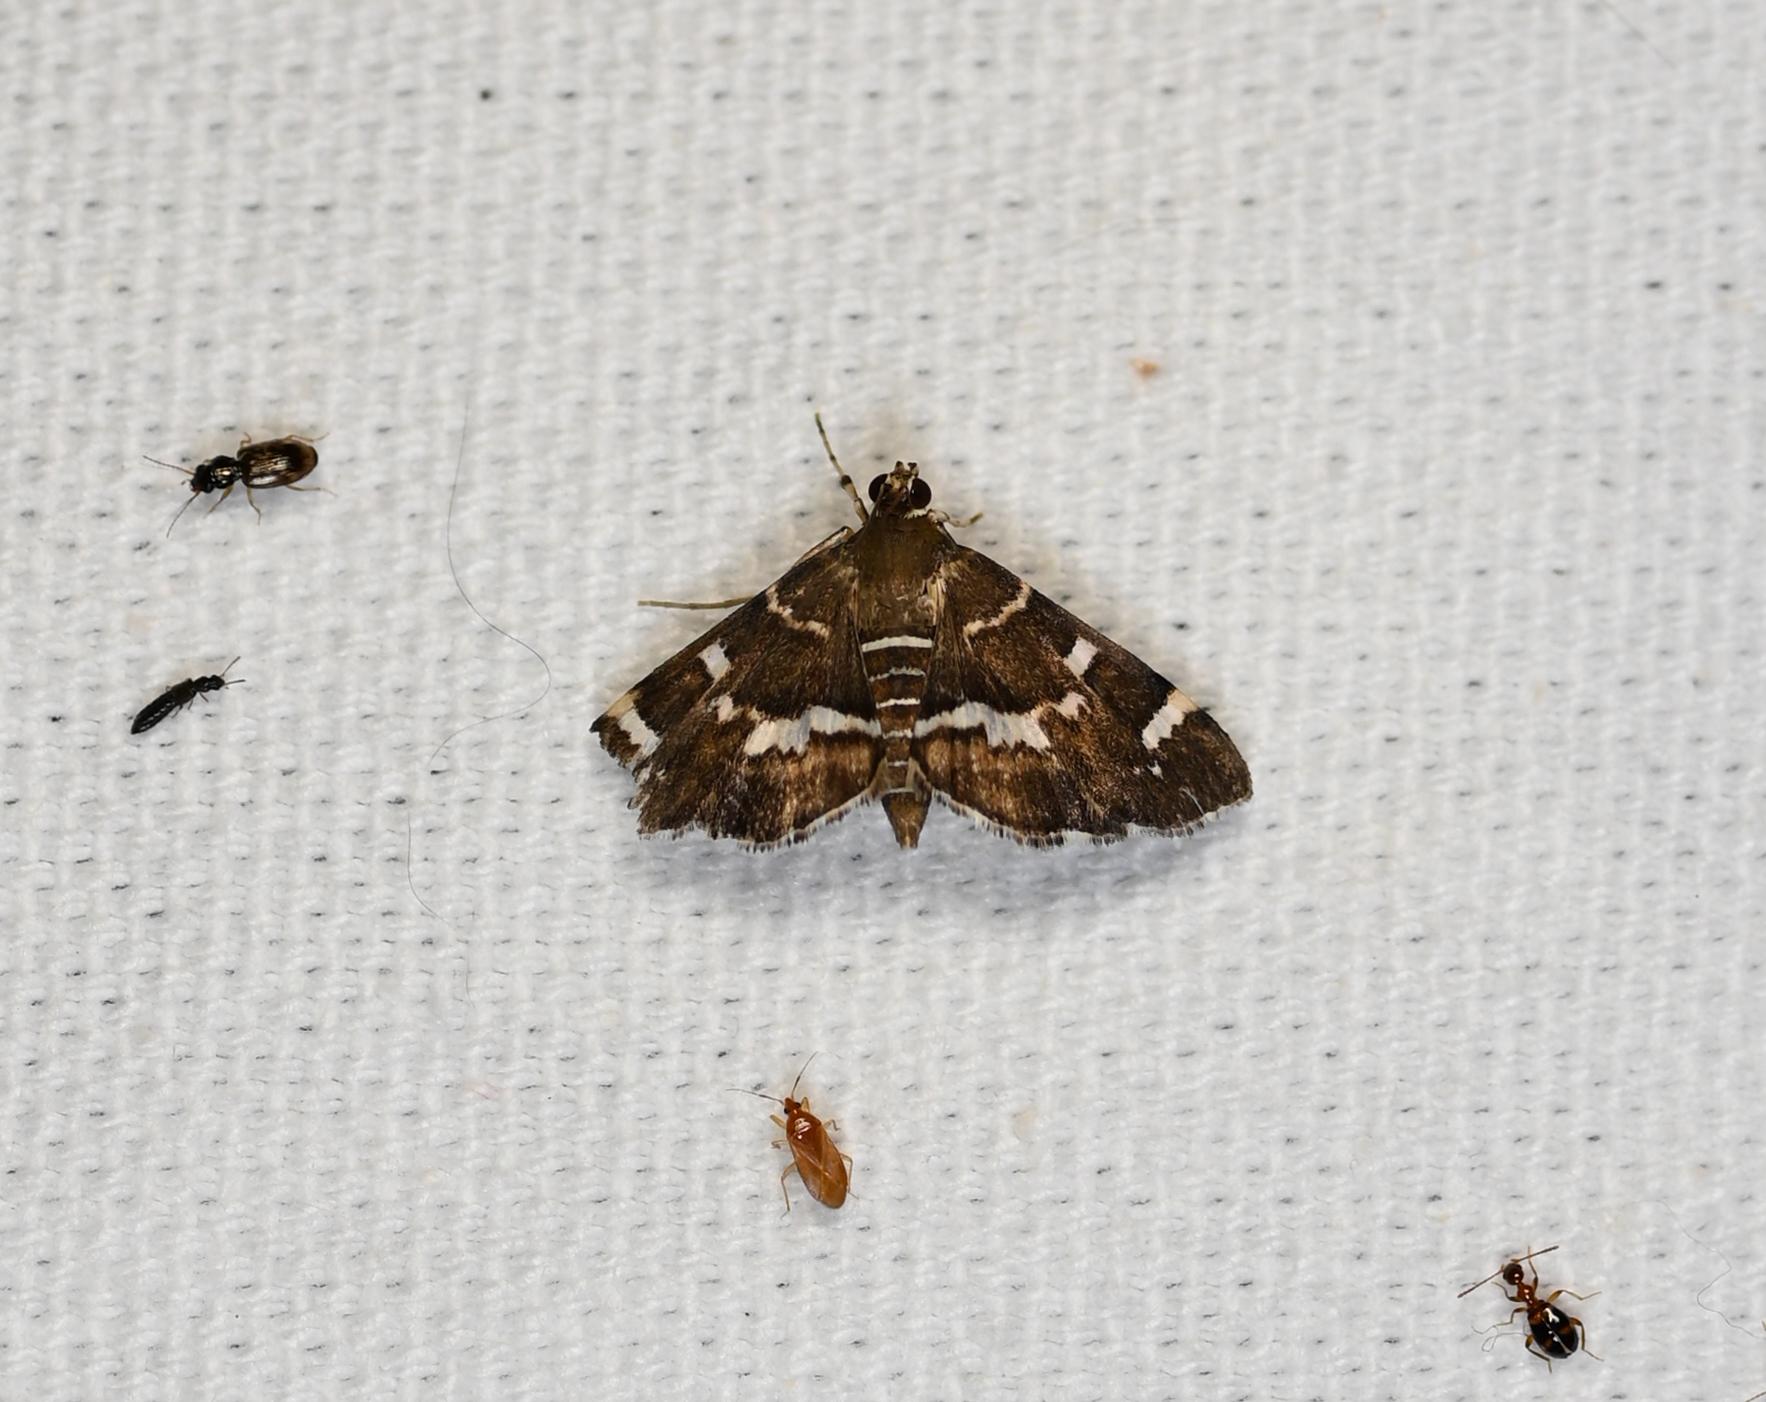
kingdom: Animalia
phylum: Arthropoda
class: Insecta
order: Lepidoptera
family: Crambidae
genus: Hymenia
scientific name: Hymenia perspectalis
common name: Spotted beet webworm
